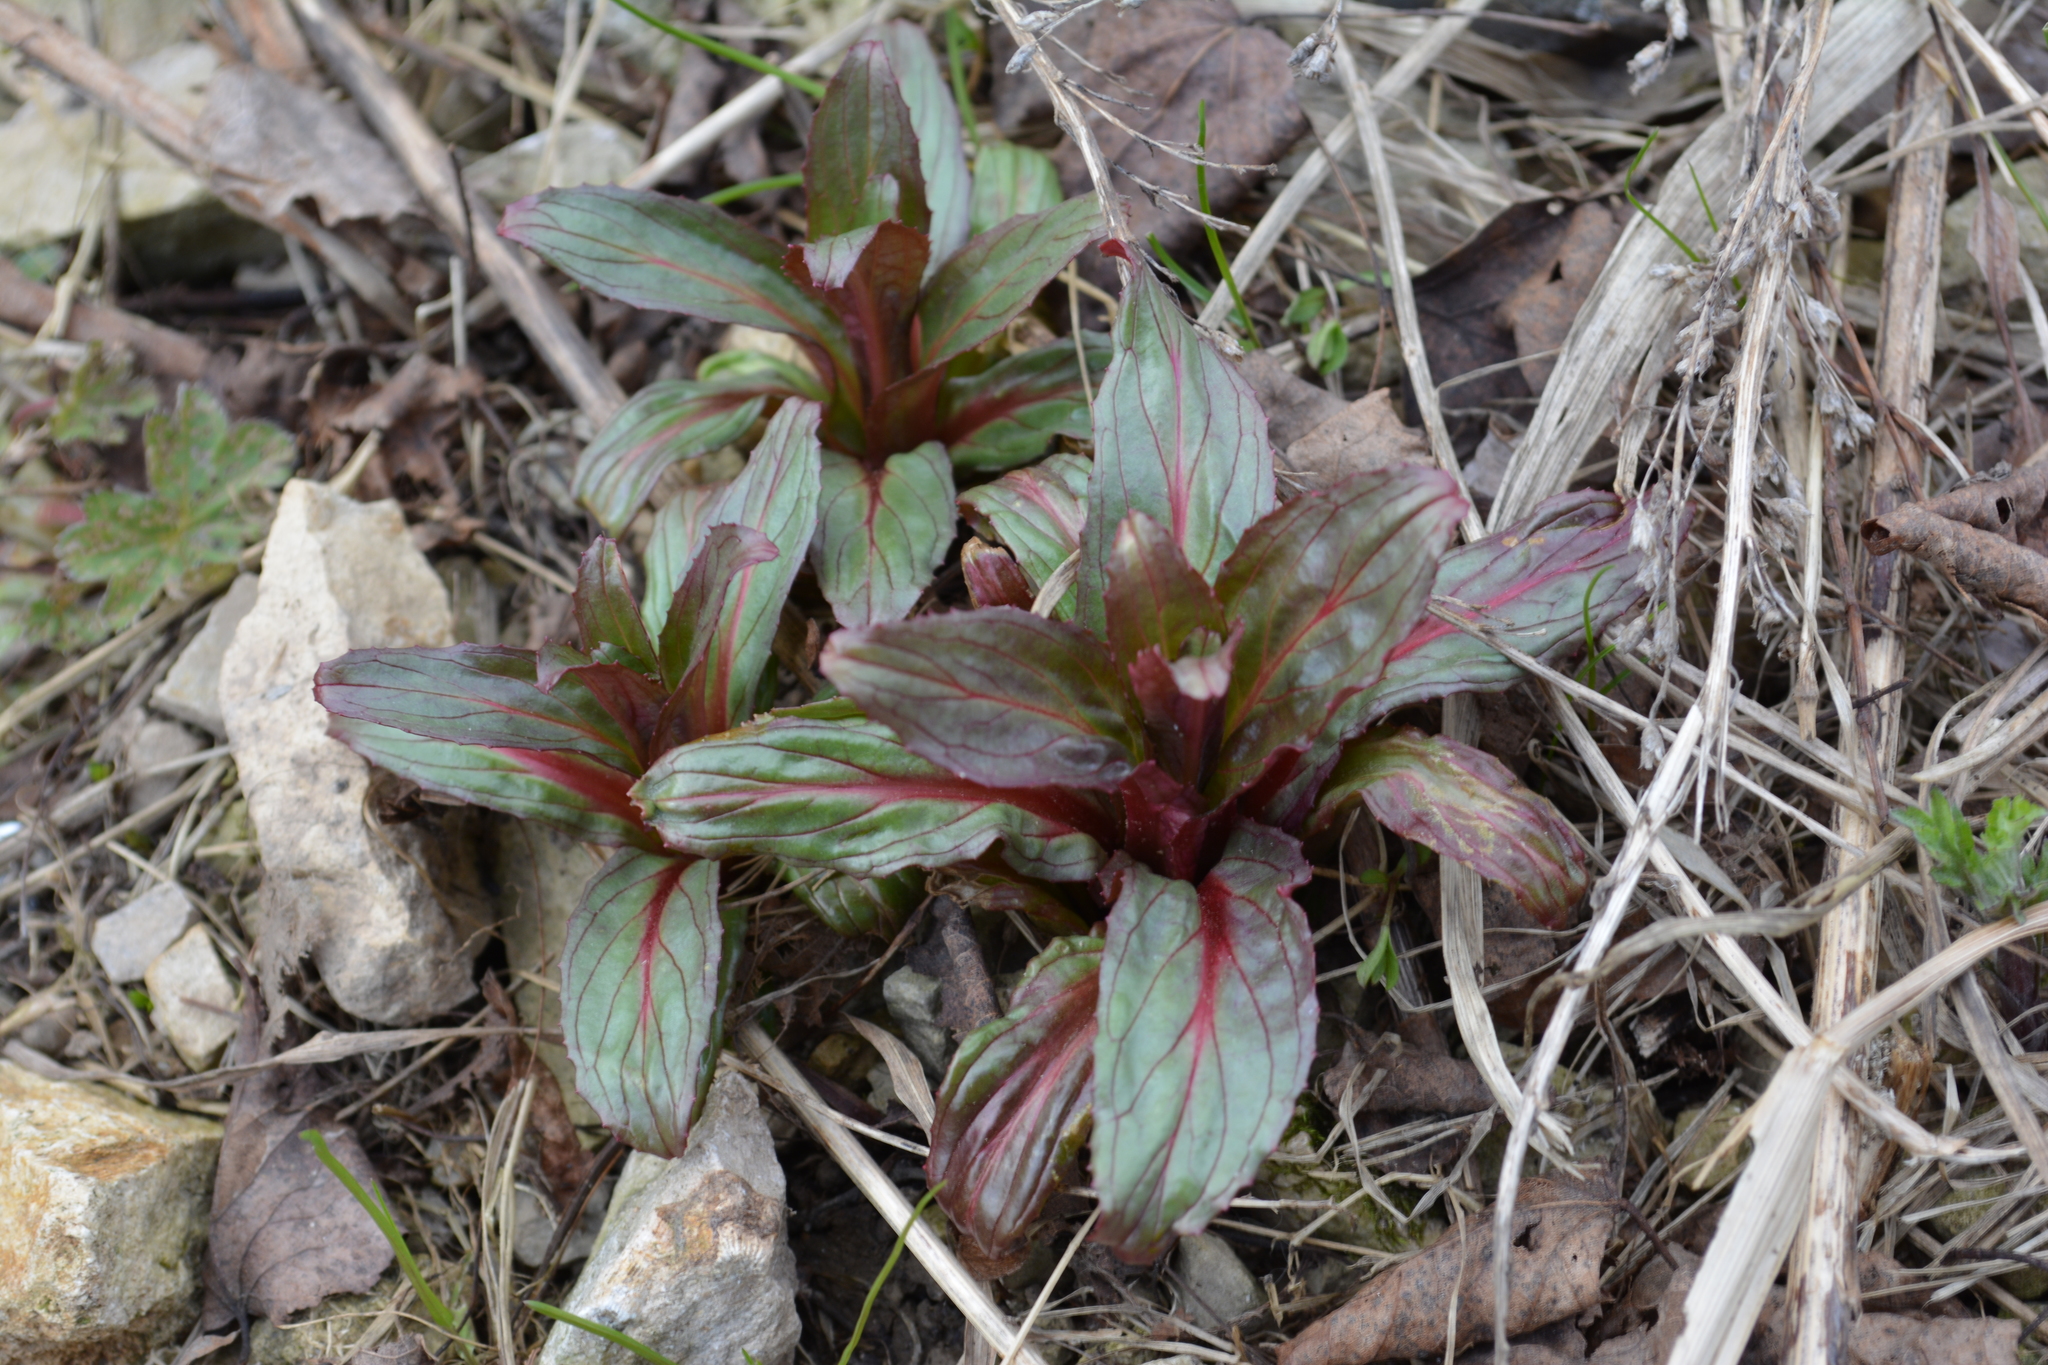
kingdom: Plantae
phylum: Tracheophyta
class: Magnoliopsida
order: Myrtales
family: Onagraceae
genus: Epilobium
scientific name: Epilobium hirsutum
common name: Great willowherb
